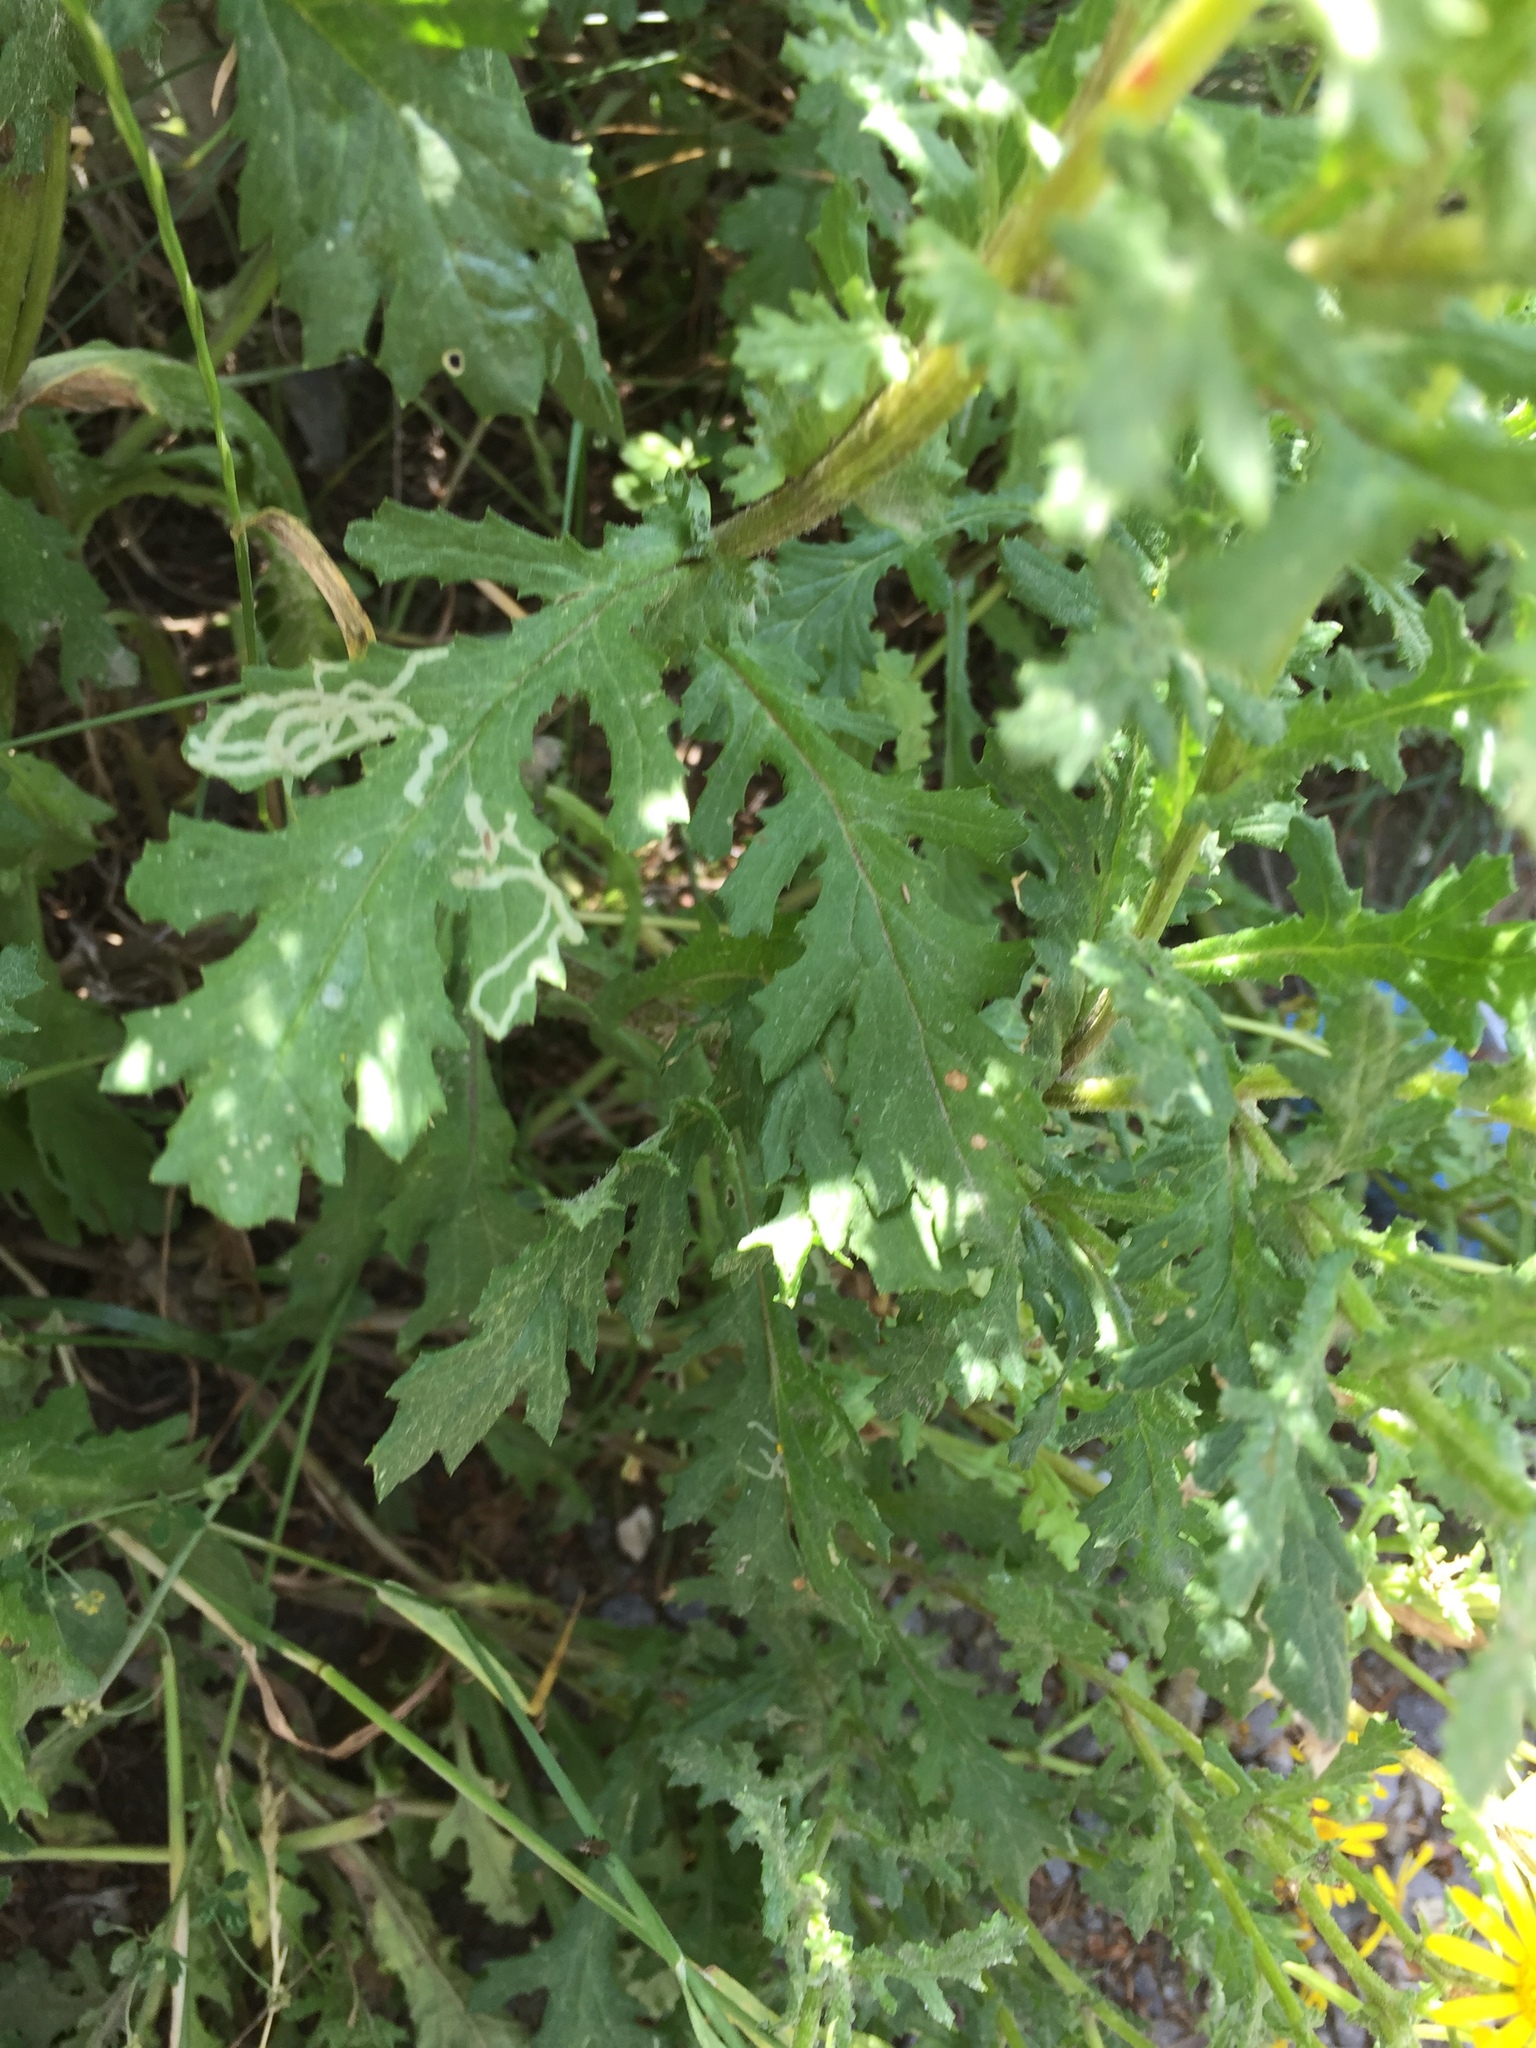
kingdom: Plantae
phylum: Tracheophyta
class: Magnoliopsida
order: Asterales
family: Asteraceae
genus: Senecio
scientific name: Senecio rupestris
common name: Rock ragwort
